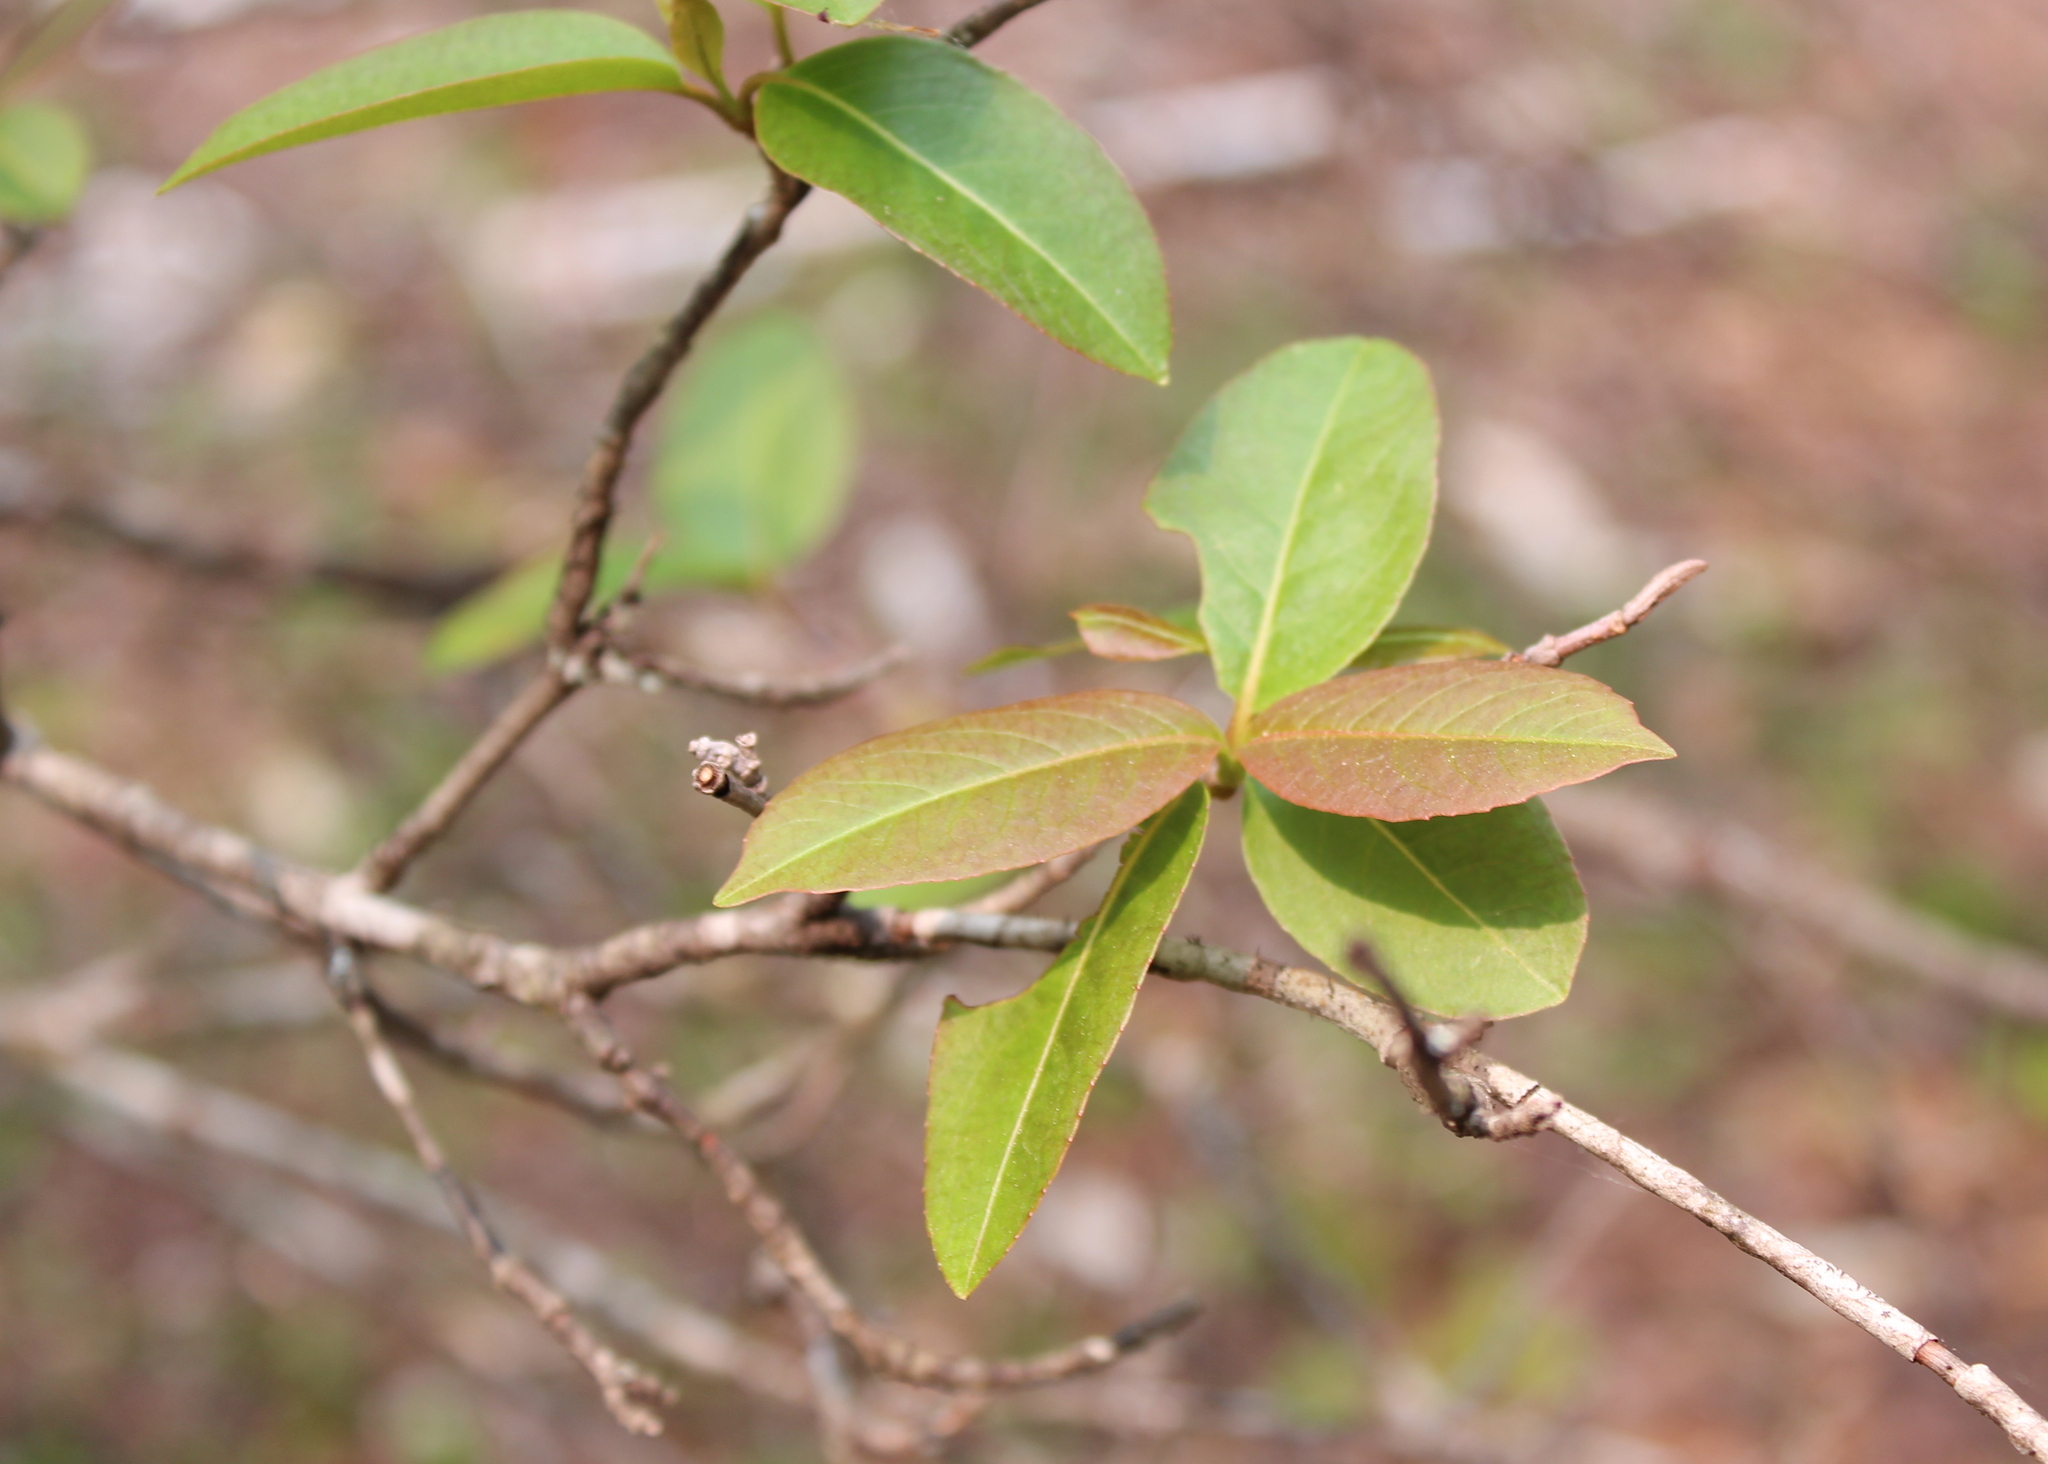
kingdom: Plantae
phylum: Tracheophyta
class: Magnoliopsida
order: Dipsacales
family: Viburnaceae
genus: Viburnum
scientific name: Viburnum cassinoides
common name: Swamp haw
